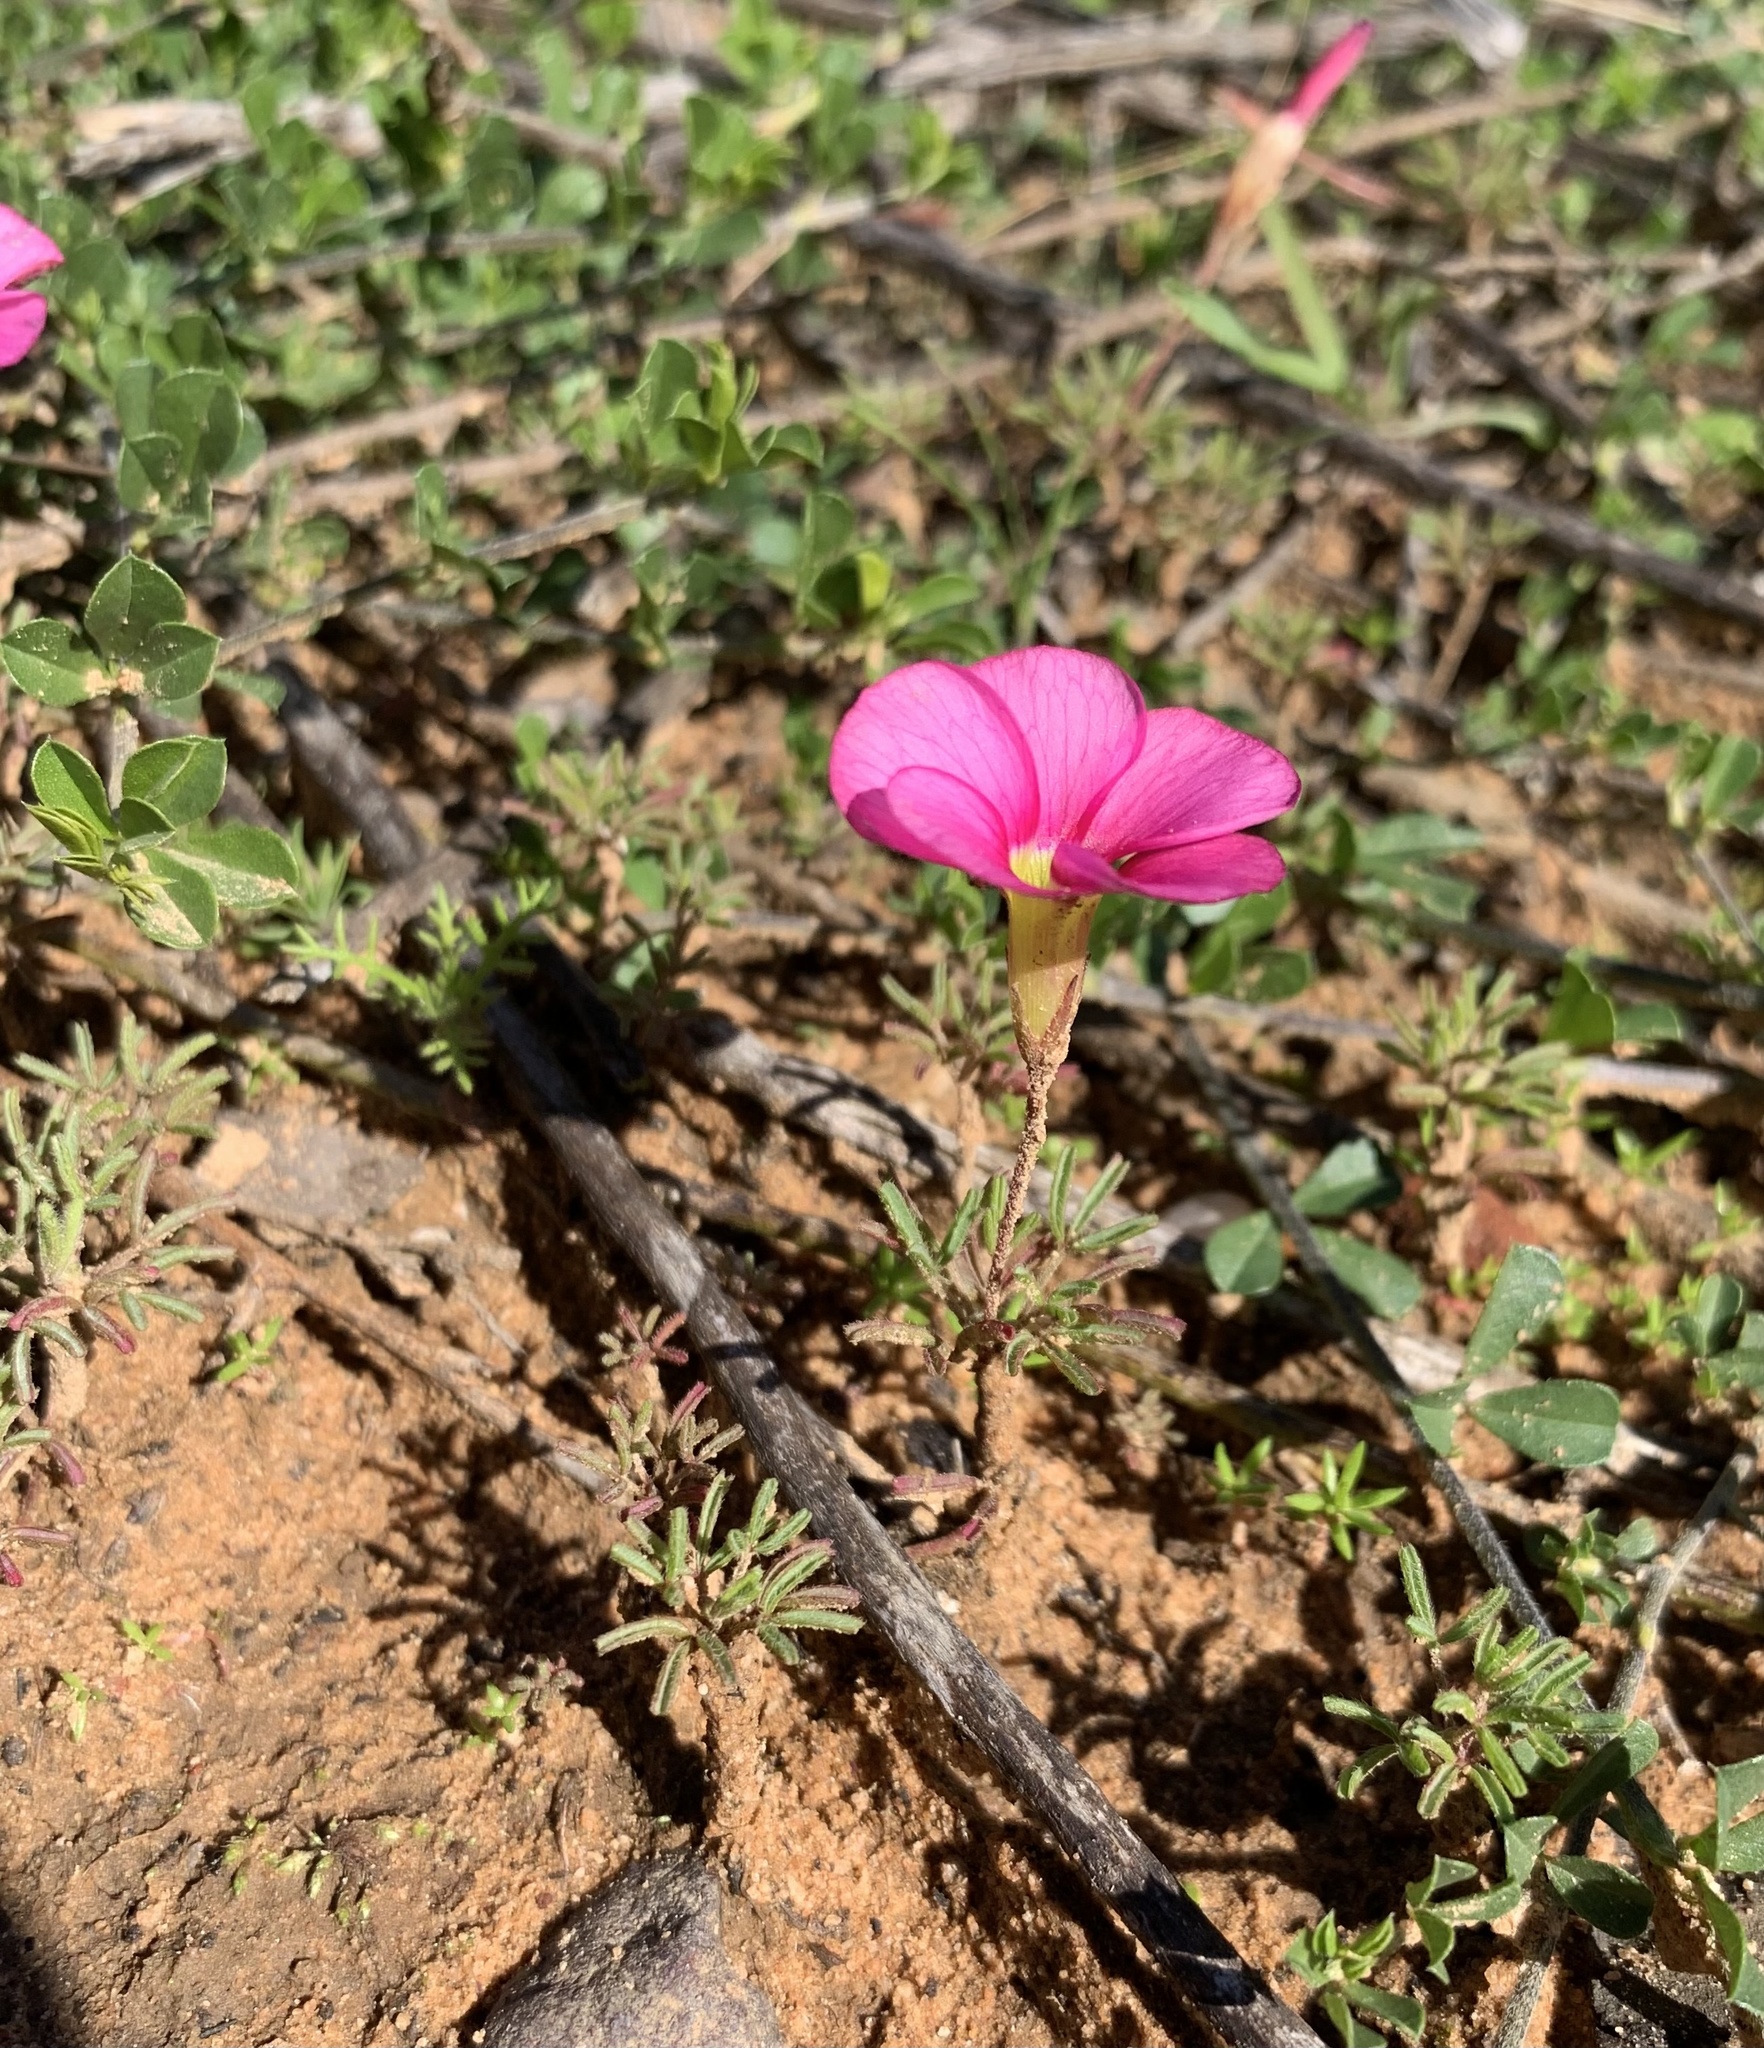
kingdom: Plantae
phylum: Tracheophyta
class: Magnoliopsida
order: Oxalidales
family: Oxalidaceae
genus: Oxalis
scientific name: Oxalis glabra
